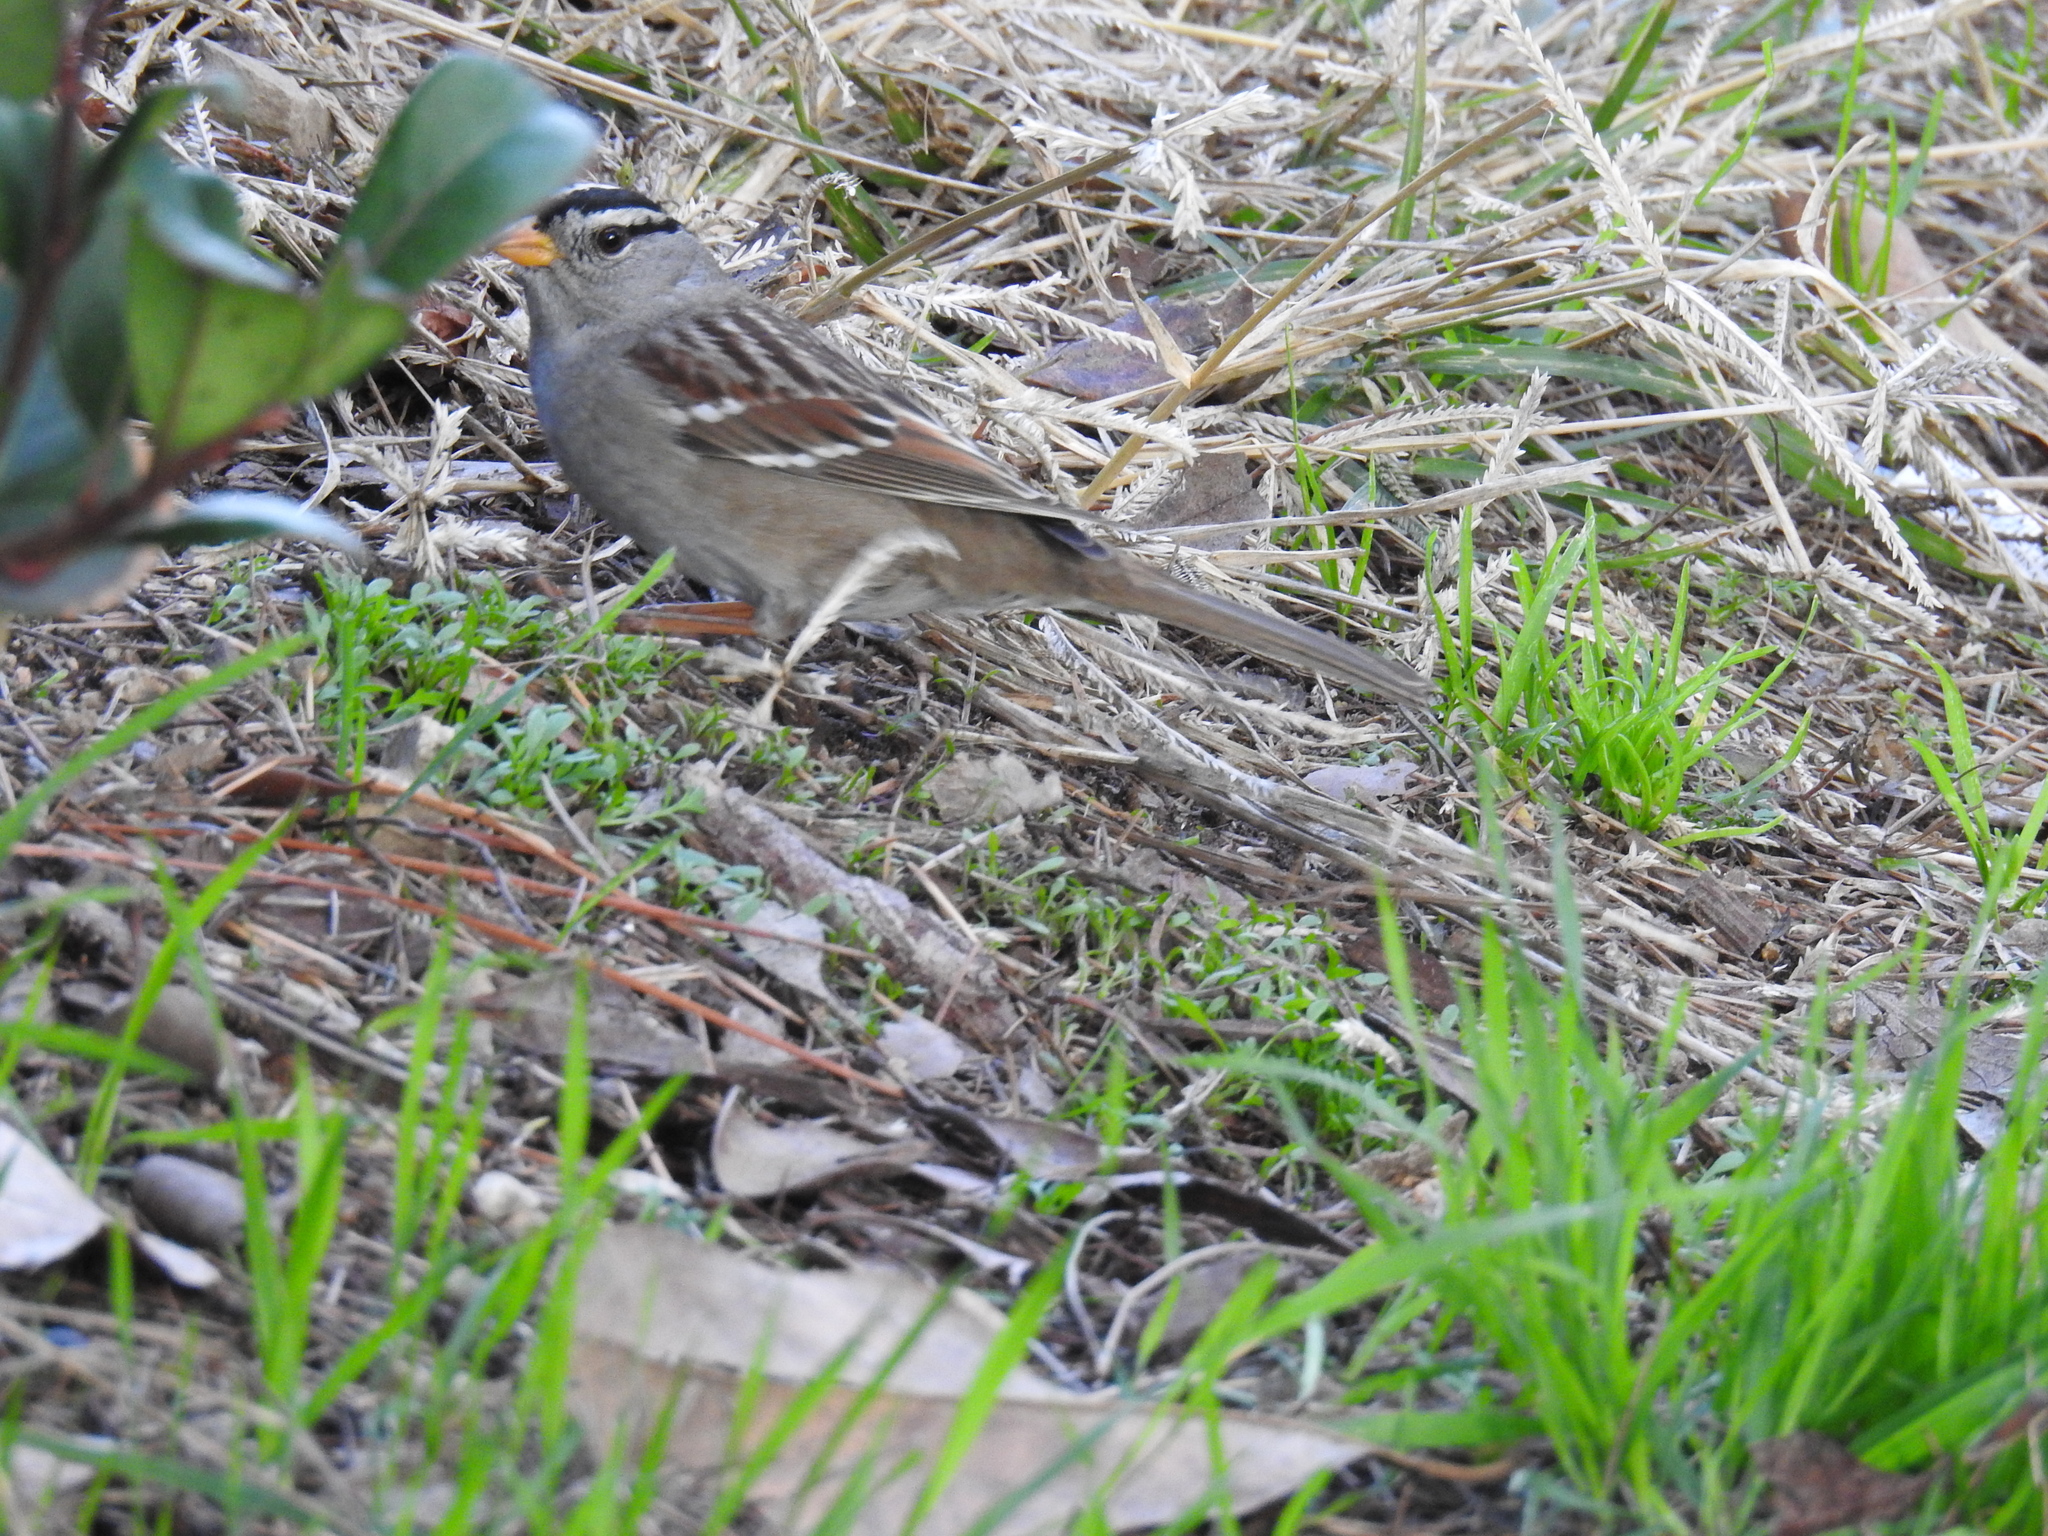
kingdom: Animalia
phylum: Chordata
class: Aves
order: Passeriformes
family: Passerellidae
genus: Zonotrichia
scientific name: Zonotrichia leucophrys
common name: White-crowned sparrow
